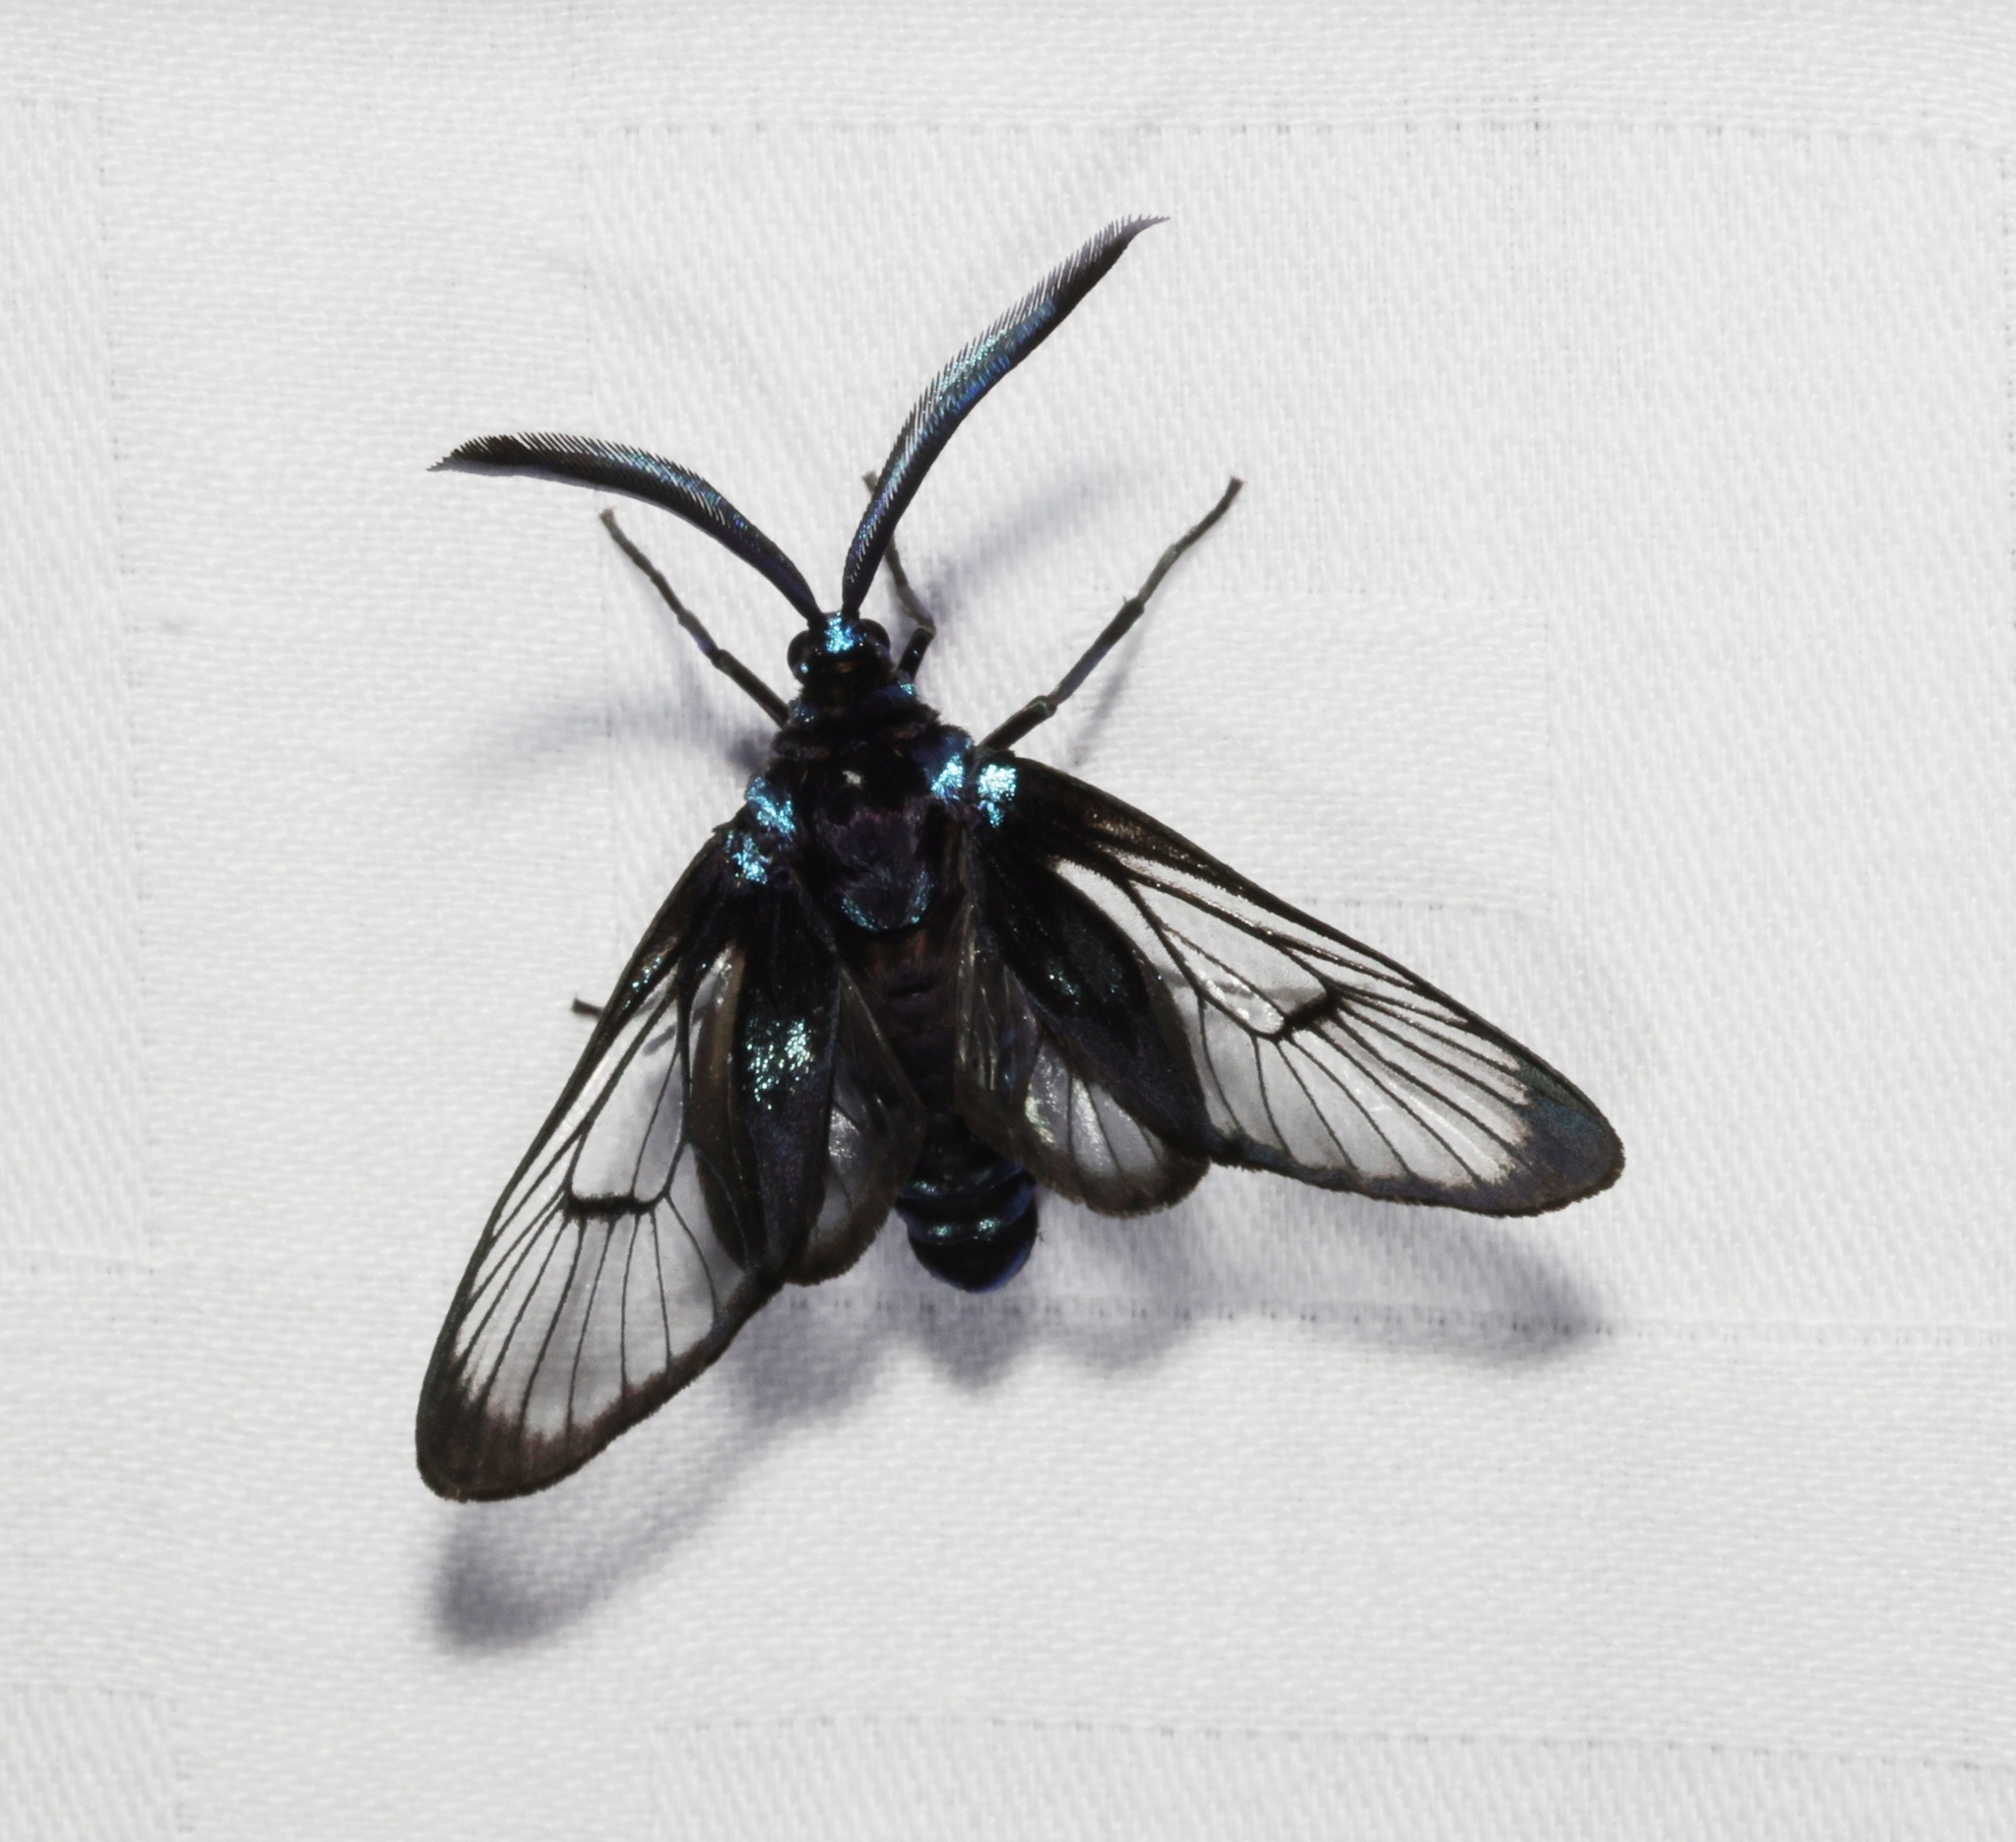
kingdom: Animalia
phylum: Arthropoda
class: Insecta
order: Lepidoptera
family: Zygaenidae
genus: Illiberis
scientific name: Illiberis
